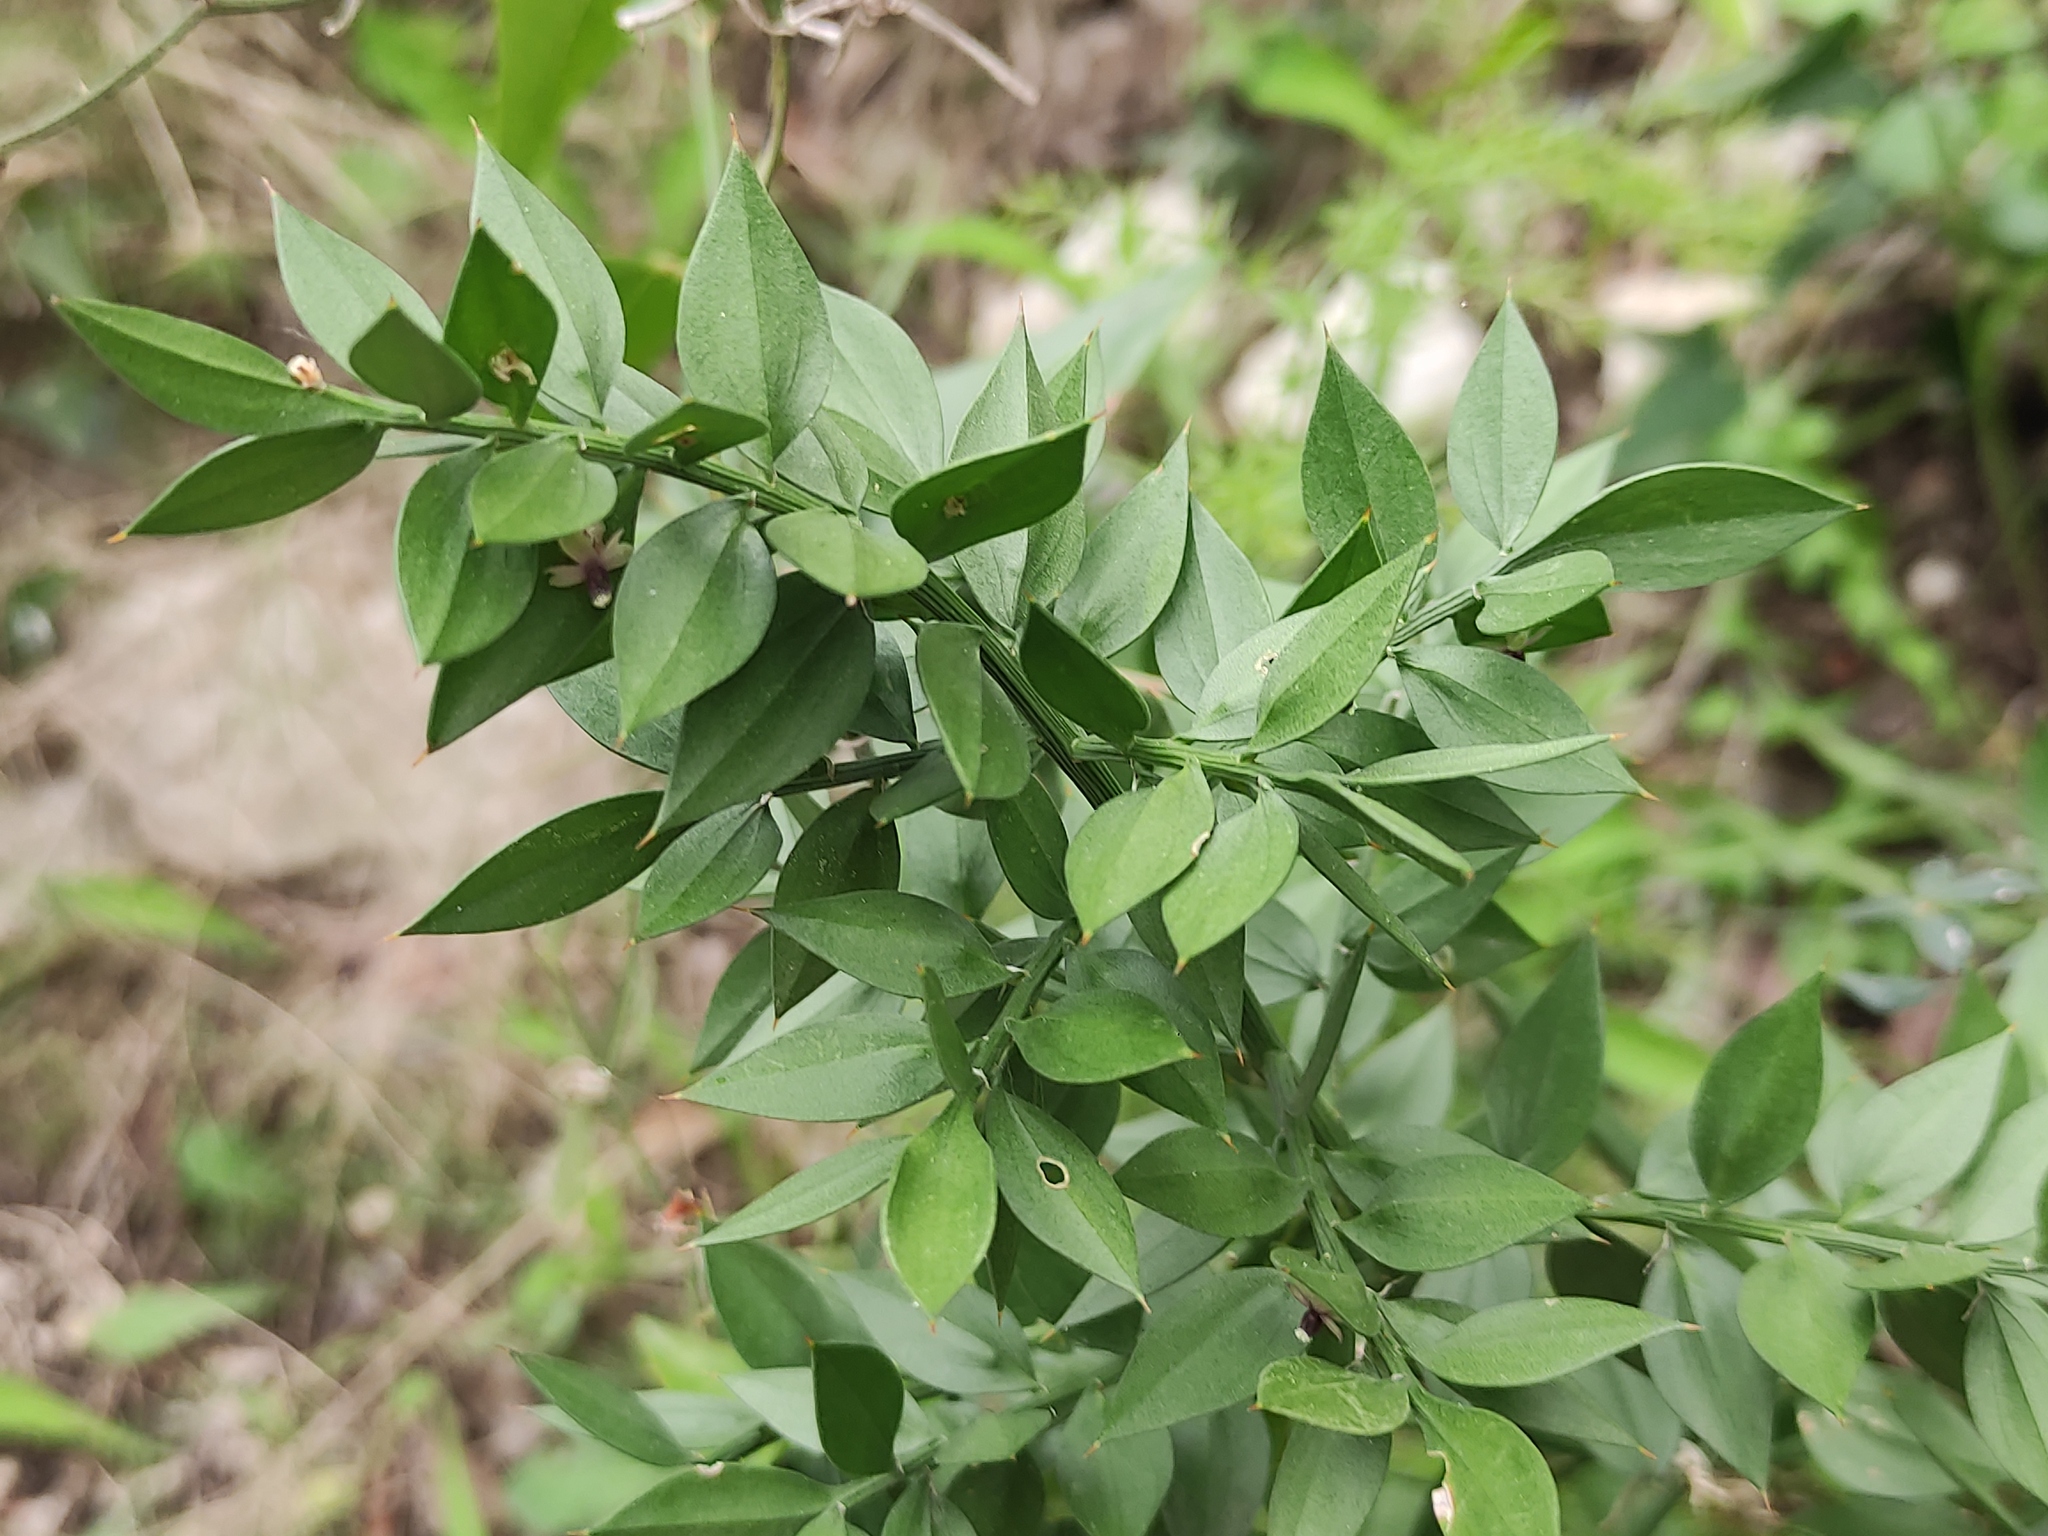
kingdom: Plantae
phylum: Tracheophyta
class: Liliopsida
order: Asparagales
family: Asparagaceae
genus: Ruscus
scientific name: Ruscus aculeatus
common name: Butcher's-broom
